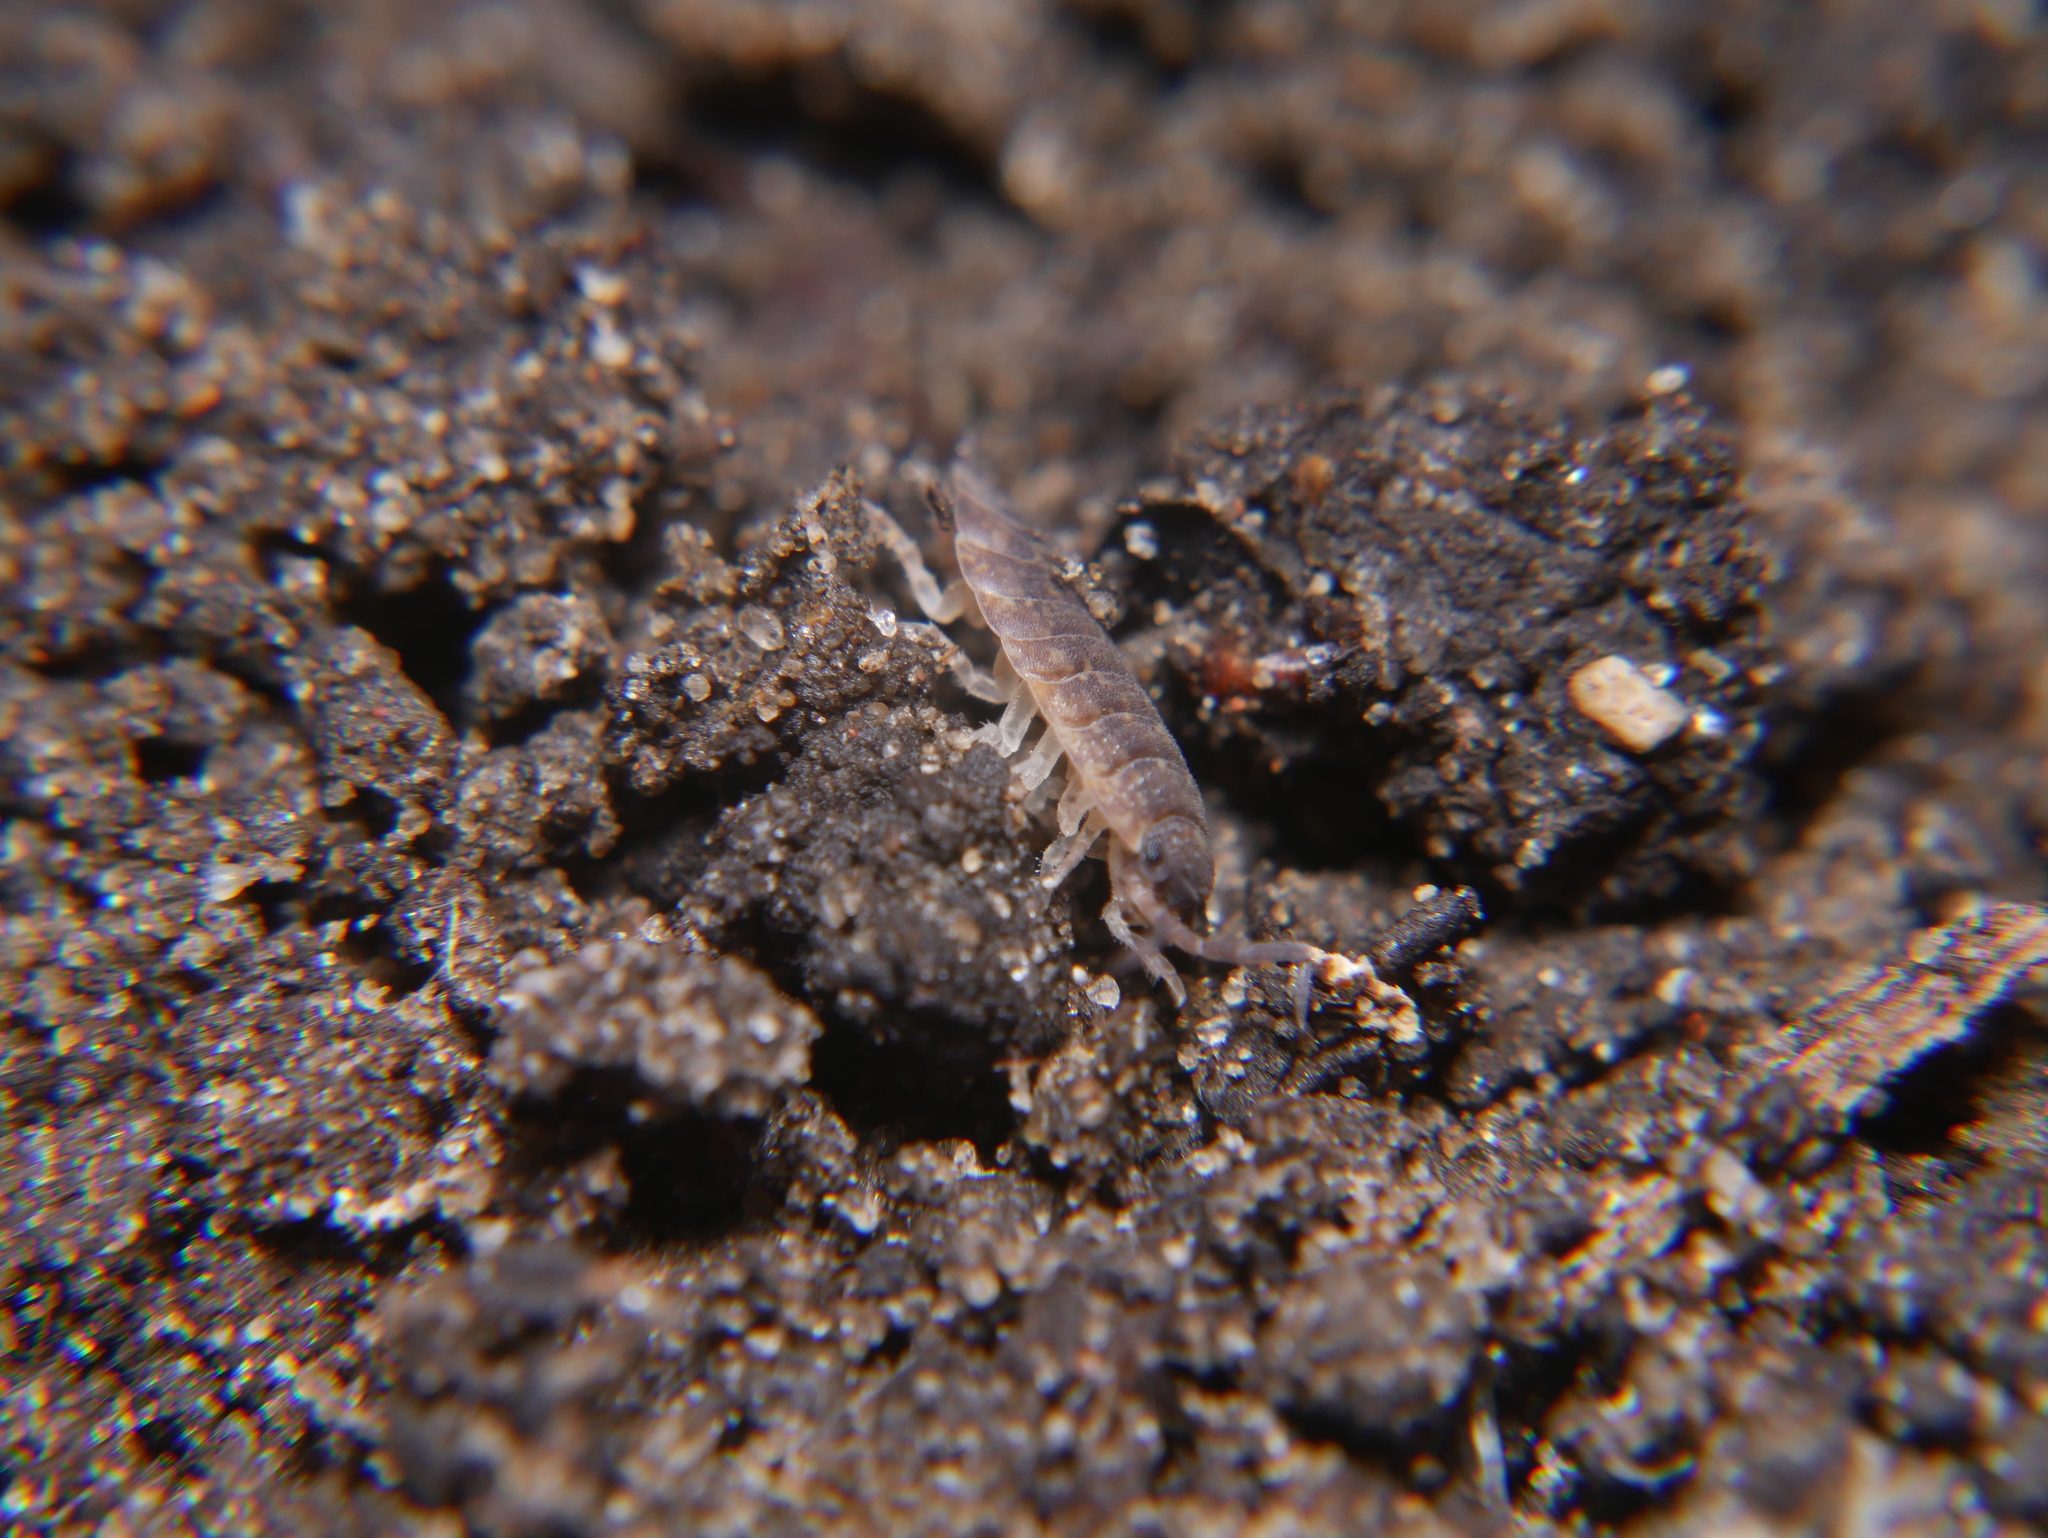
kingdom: Animalia
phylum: Arthropoda
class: Malacostraca
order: Isopoda
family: Porcellionidae
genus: Porcellio
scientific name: Porcellio scaber
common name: Common rough woodlouse
